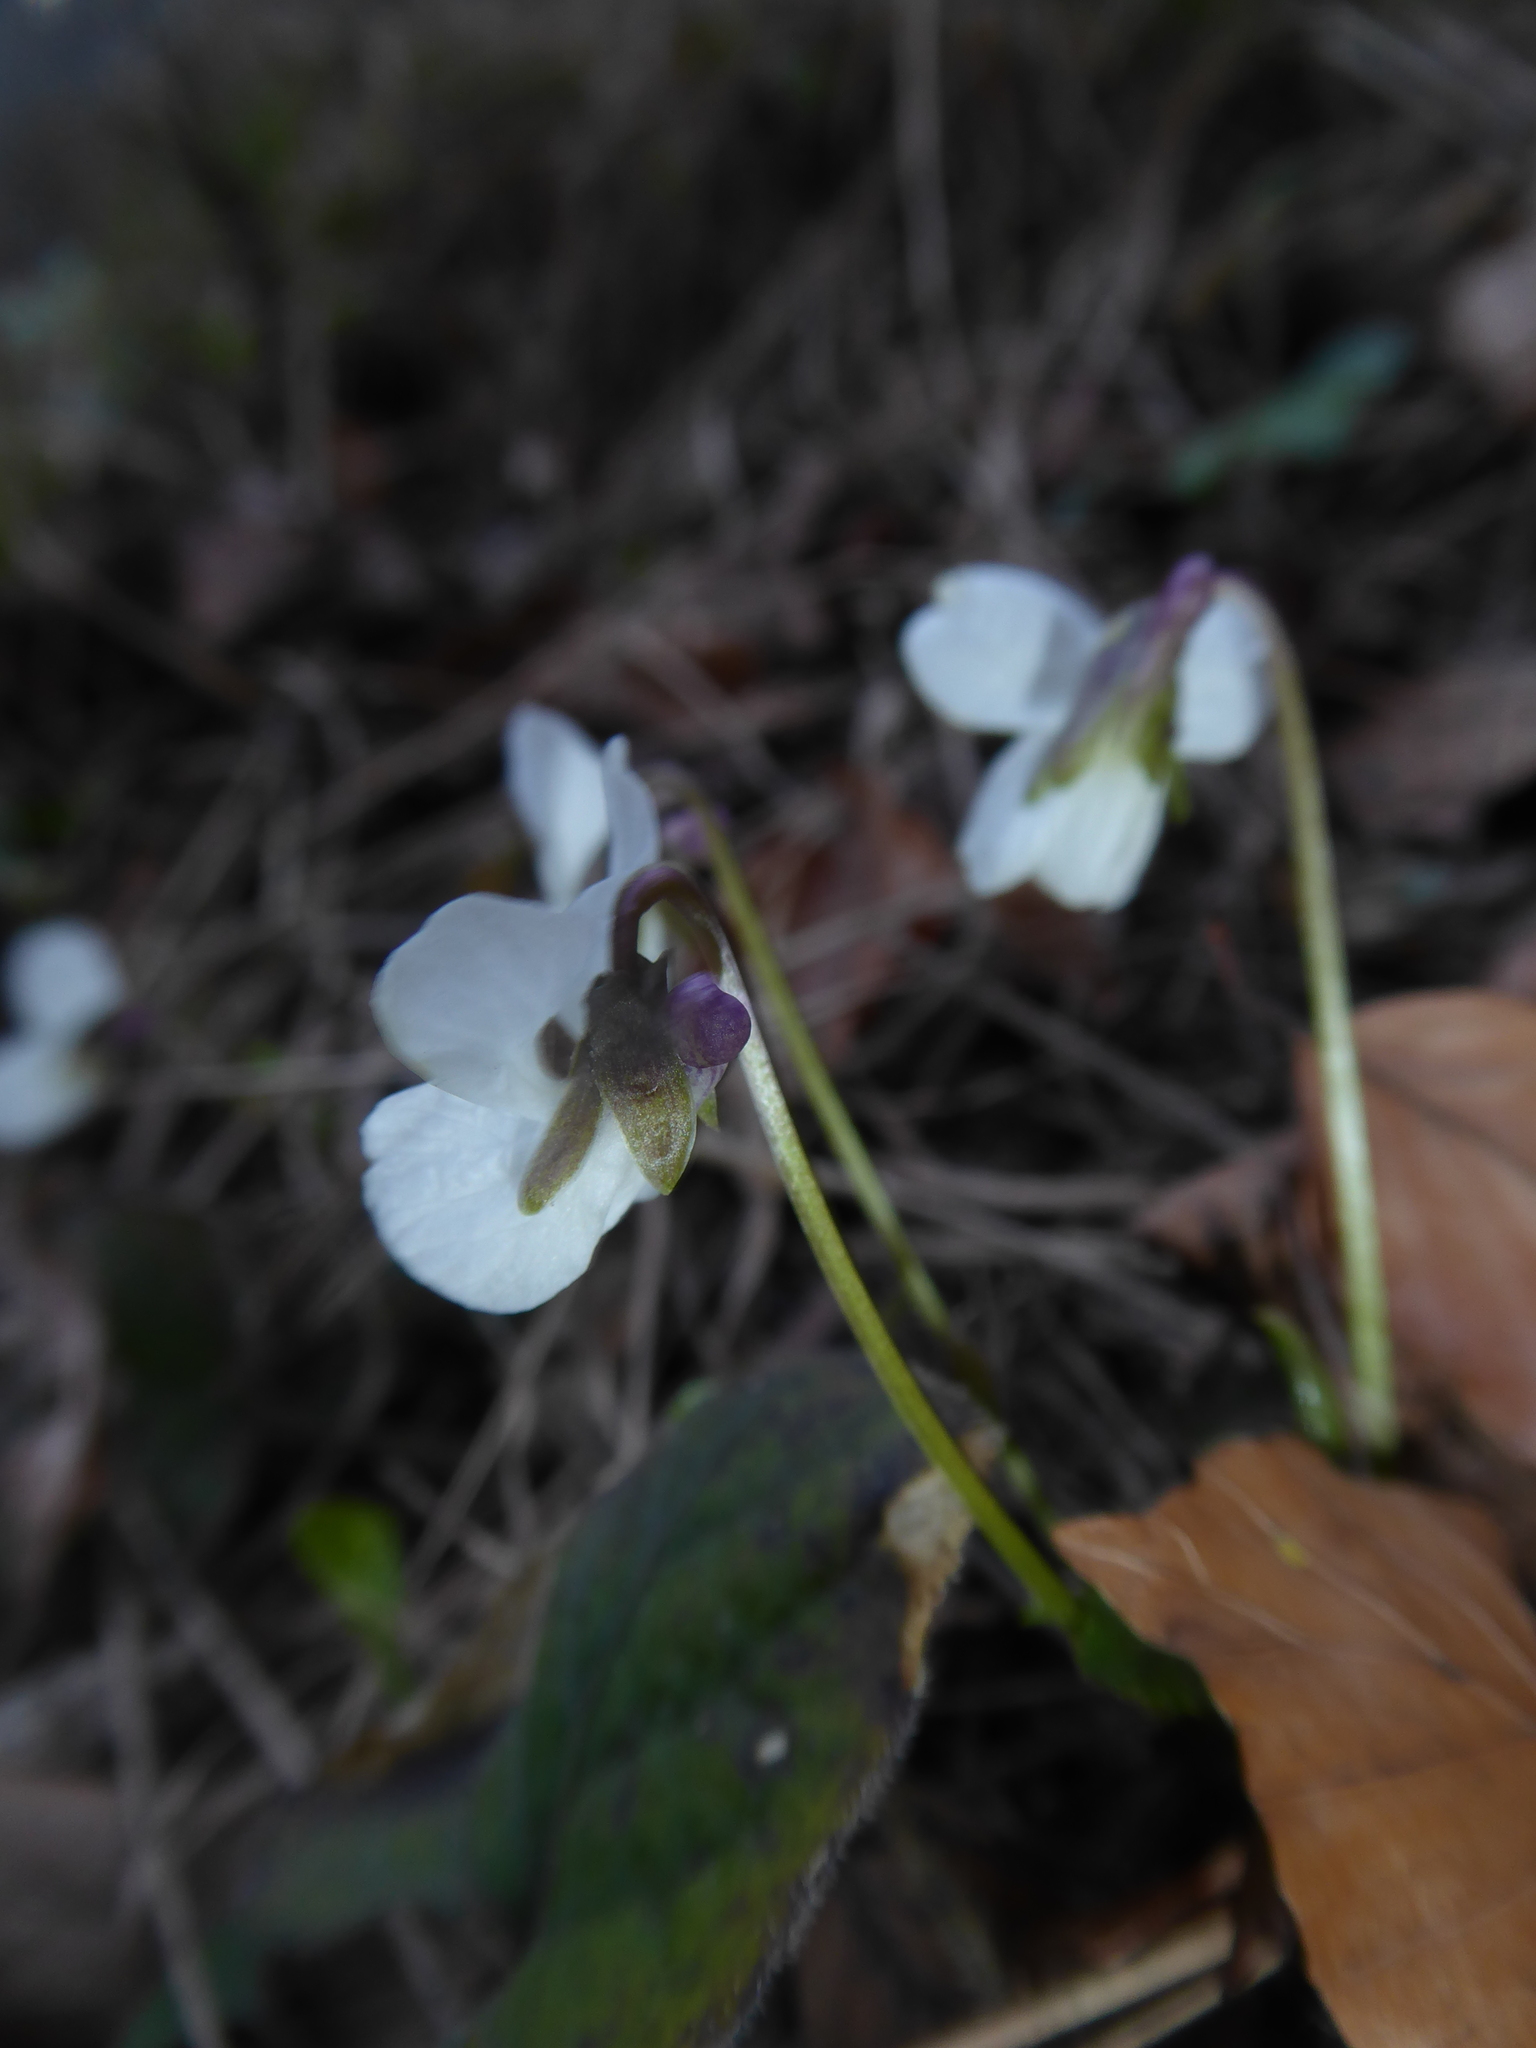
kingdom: Plantae
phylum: Tracheophyta
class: Magnoliopsida
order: Malpighiales
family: Violaceae
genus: Viola
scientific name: Viola alba
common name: White violet
